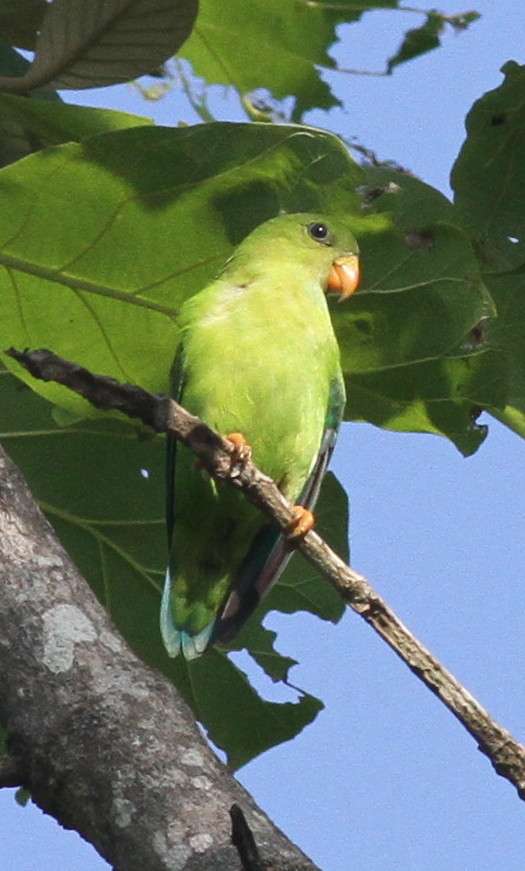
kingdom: Animalia
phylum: Chordata
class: Aves
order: Psittaciformes
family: Psittacidae
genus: Loriculus
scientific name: Loriculus vernalis
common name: Vernal hanging parrot
